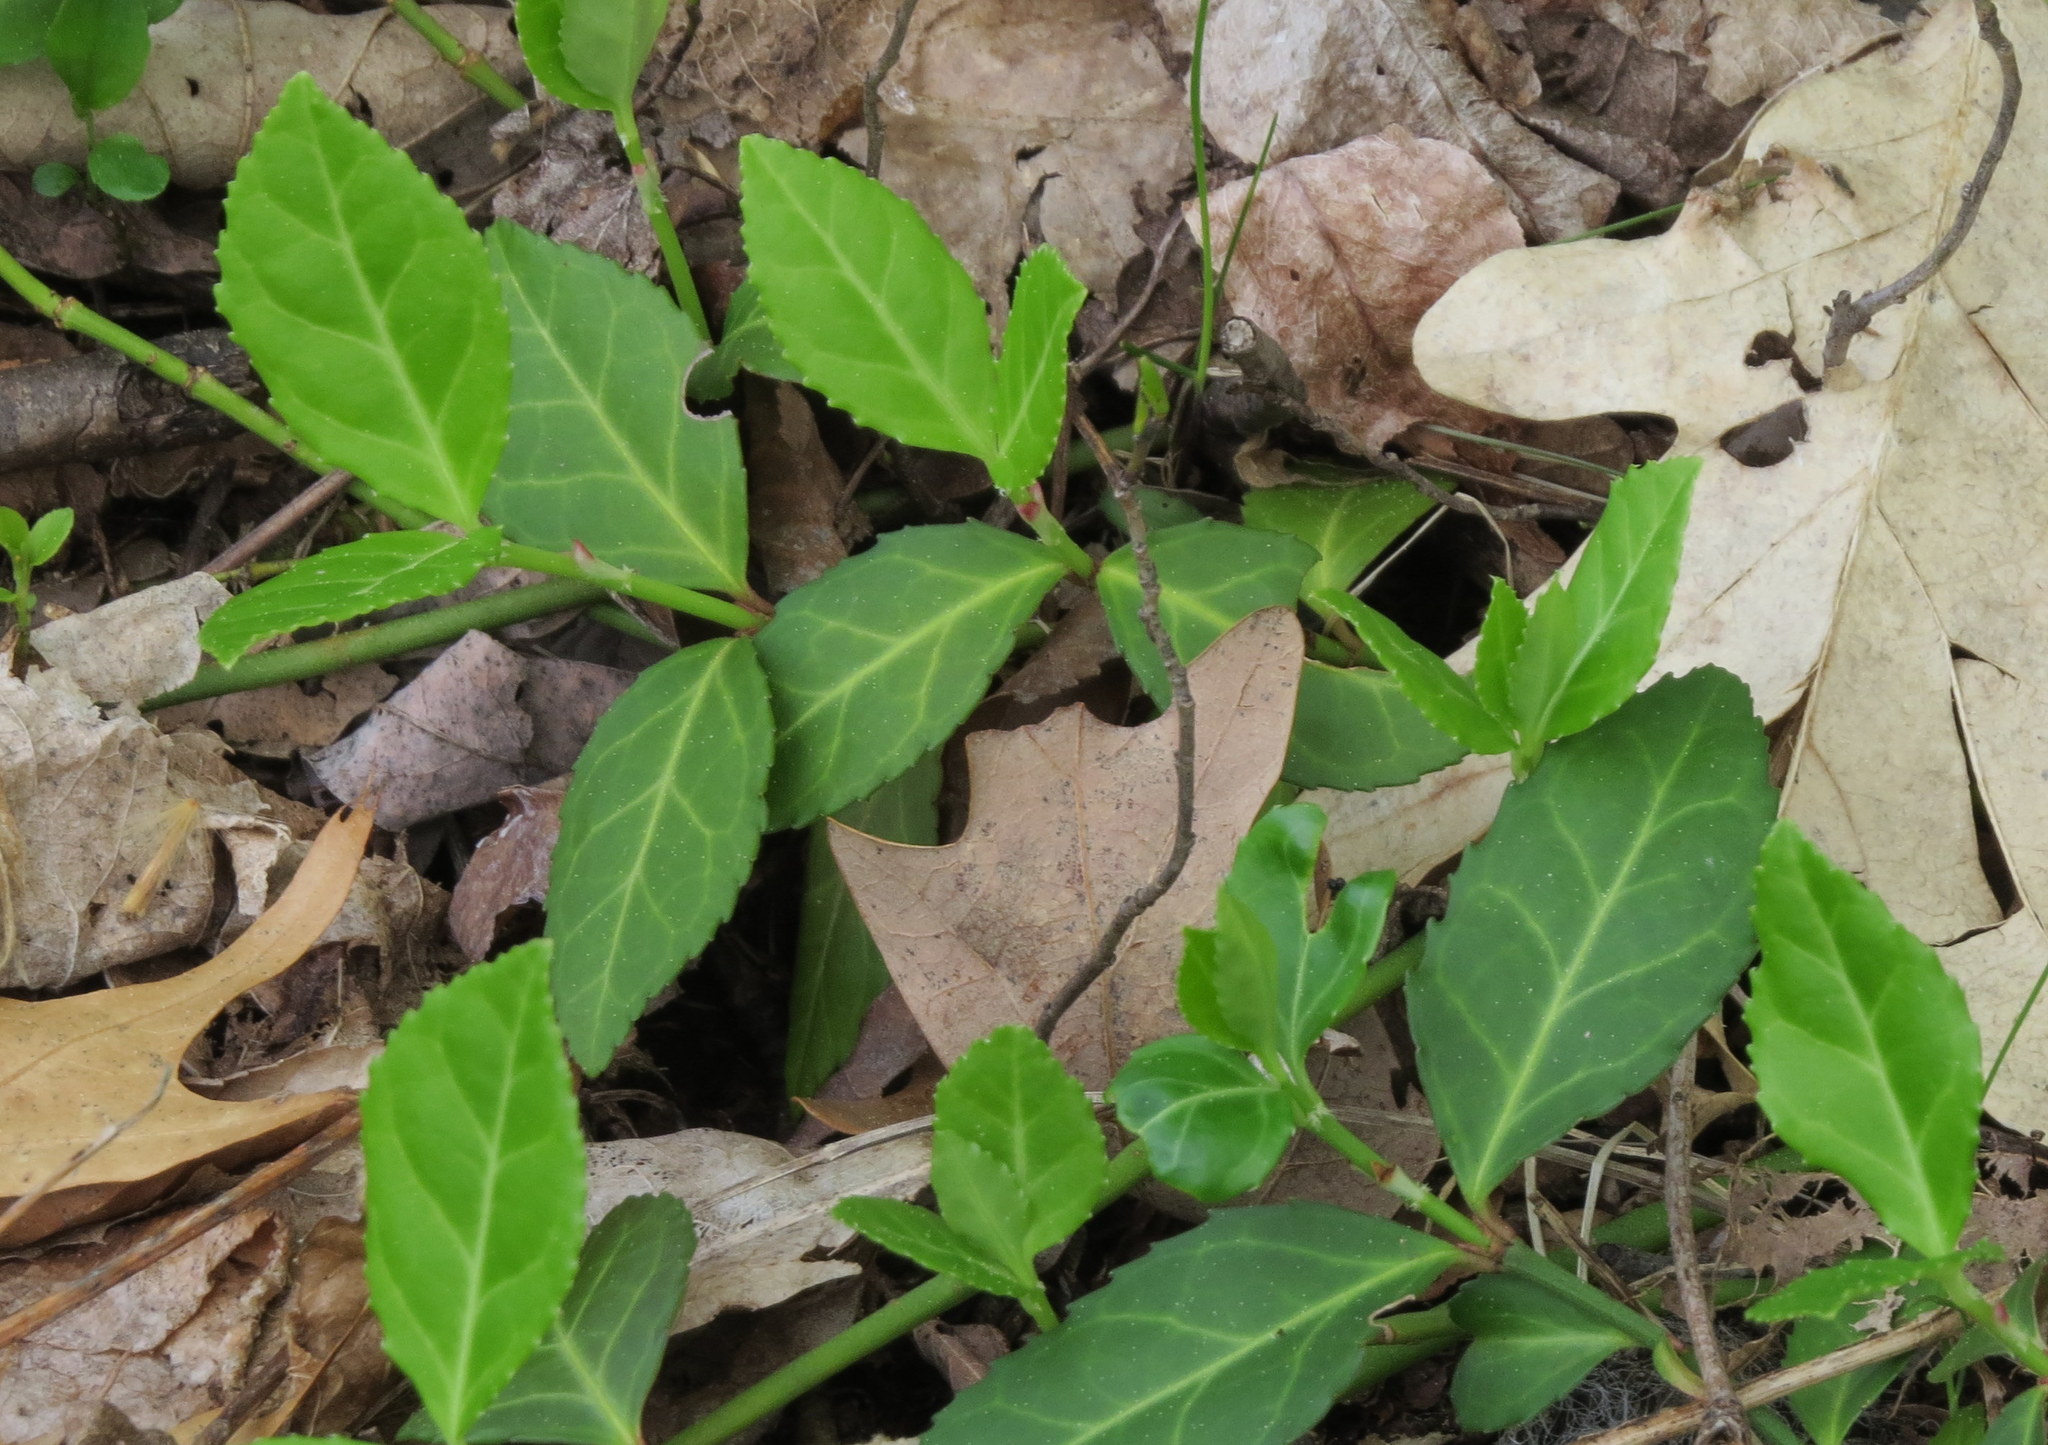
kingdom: Plantae
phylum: Tracheophyta
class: Magnoliopsida
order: Celastrales
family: Celastraceae
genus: Euonymus
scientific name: Euonymus fortunei
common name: Climbing euonymus
